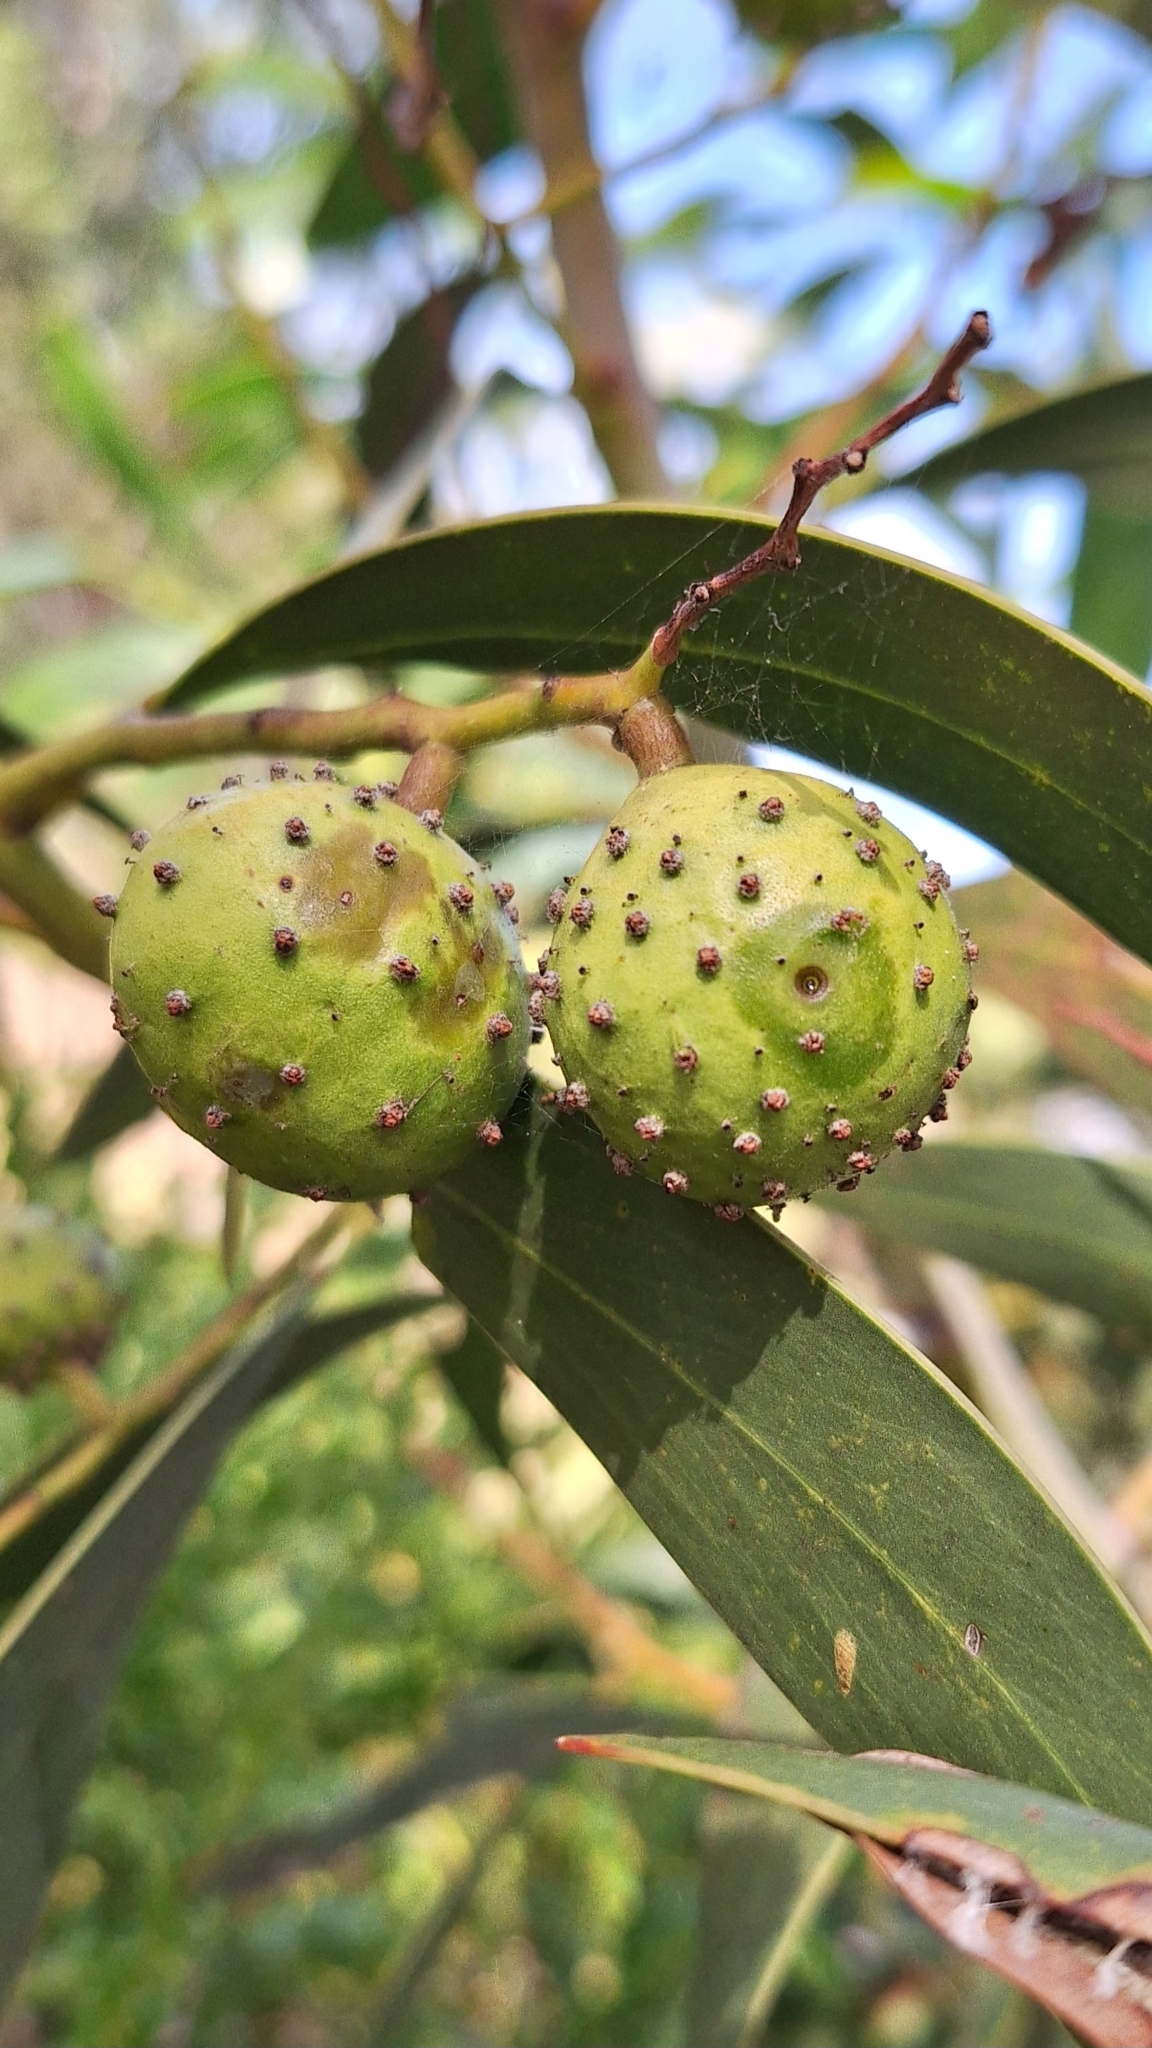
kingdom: Animalia
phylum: Arthropoda
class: Insecta
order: Hymenoptera
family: Pteromalidae
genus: Trichilogaster
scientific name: Trichilogaster signiventris
